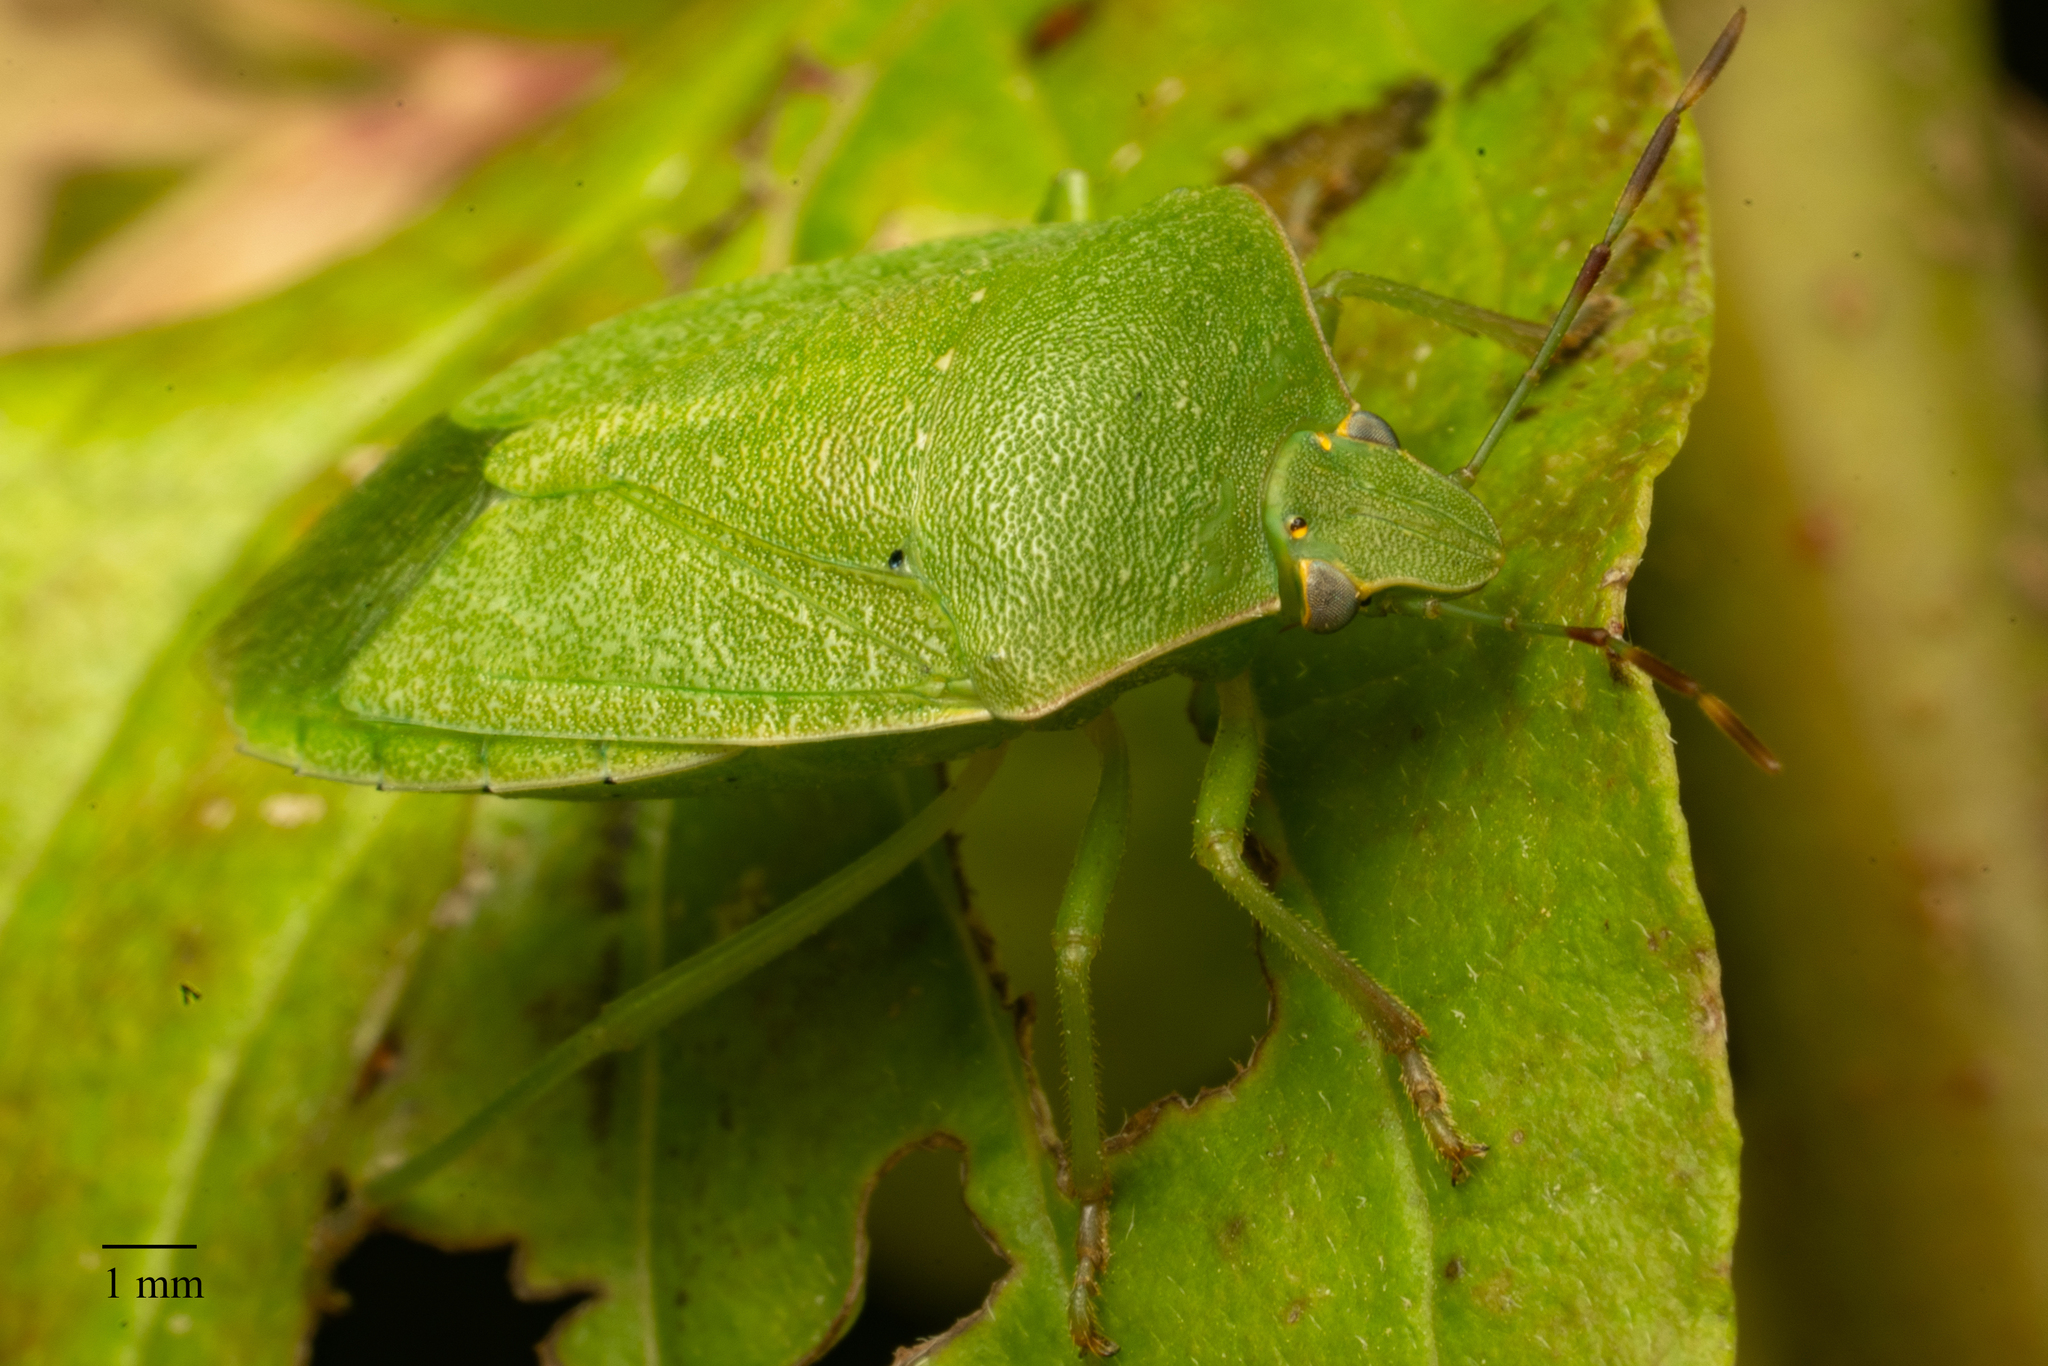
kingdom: Animalia
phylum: Arthropoda
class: Insecta
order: Hemiptera
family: Pentatomidae
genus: Nezara
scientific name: Nezara viridula
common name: Southern green stink bug
